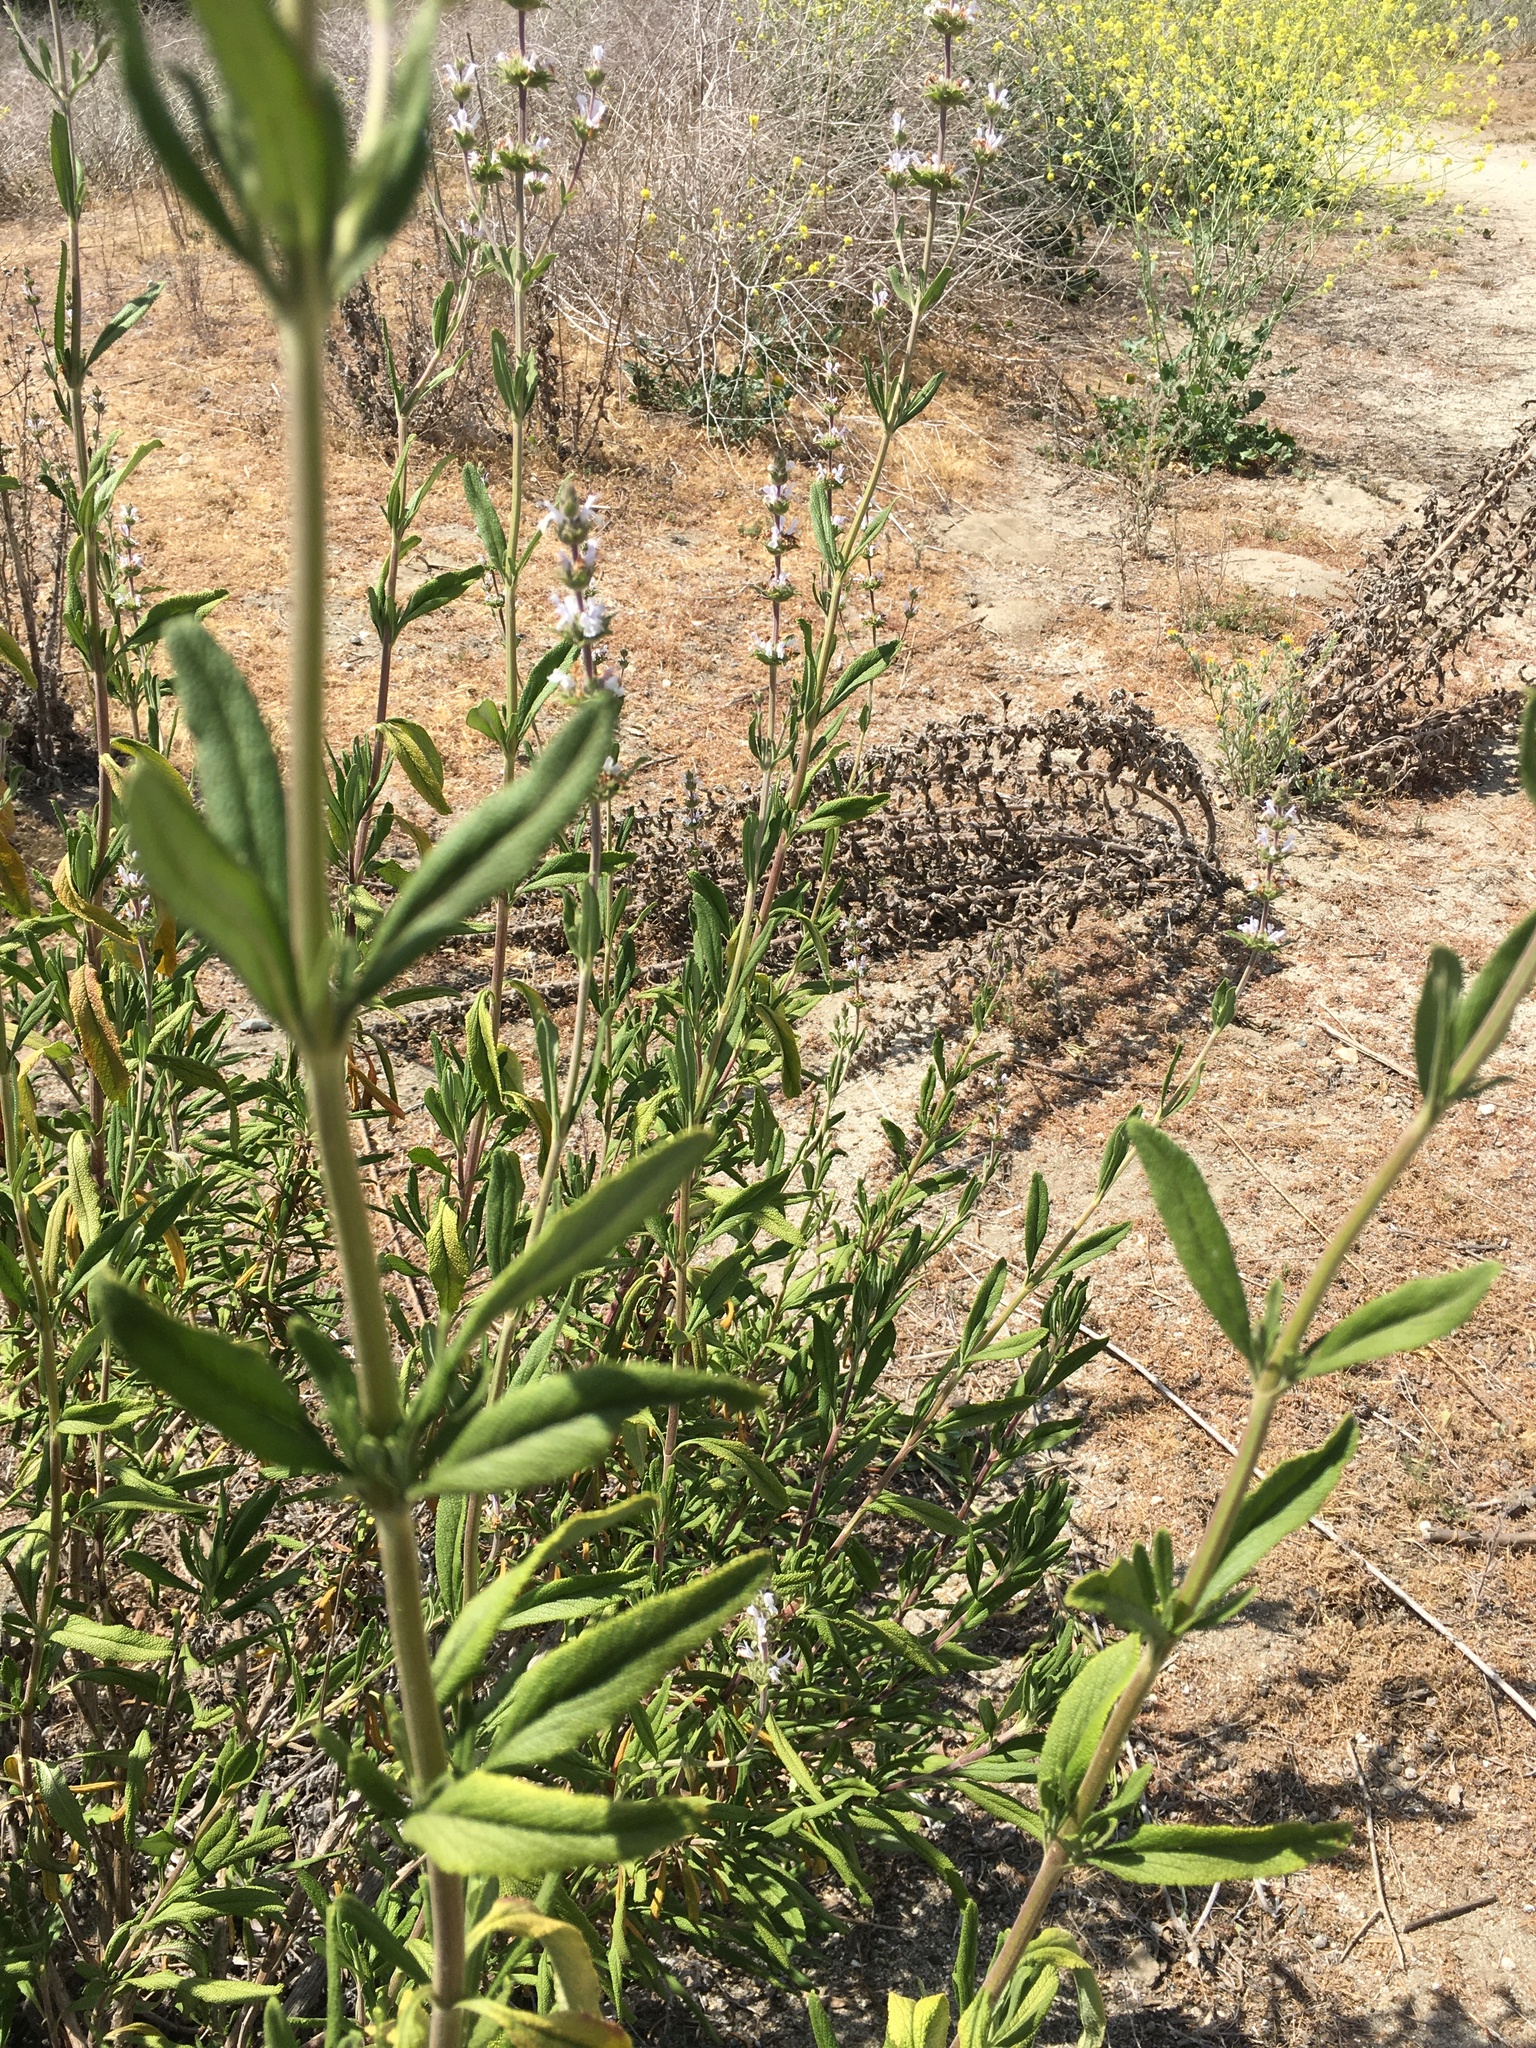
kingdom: Plantae
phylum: Tracheophyta
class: Magnoliopsida
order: Lamiales
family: Lamiaceae
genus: Salvia
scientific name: Salvia mellifera
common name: Black sage
